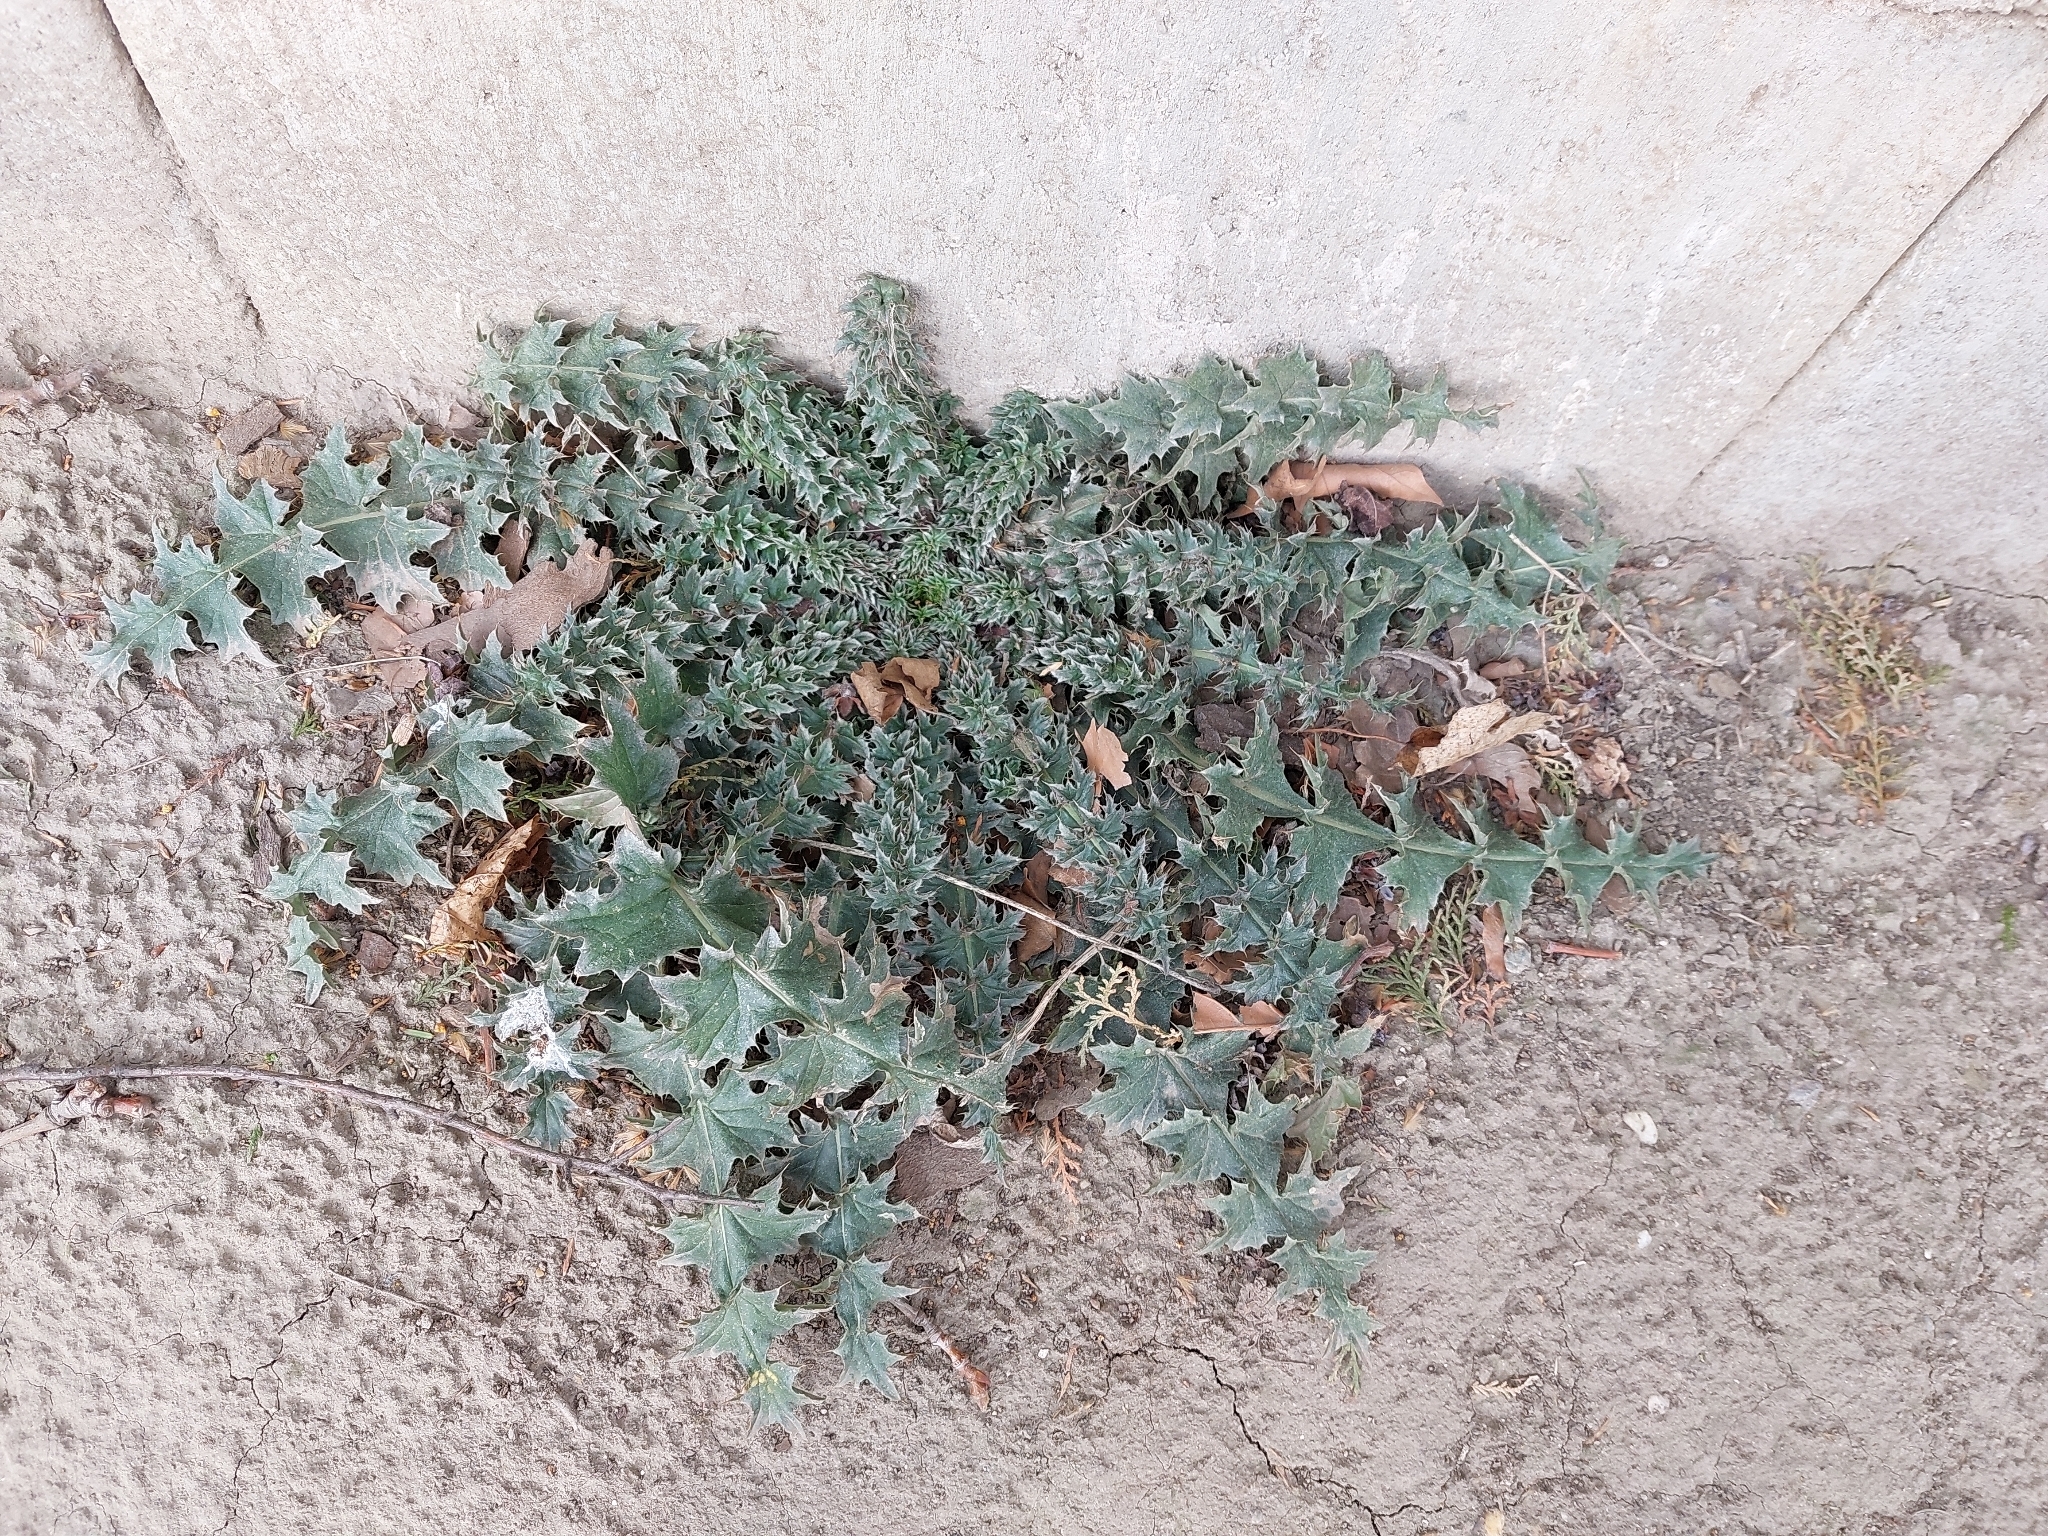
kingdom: Plantae
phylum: Tracheophyta
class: Magnoliopsida
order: Asterales
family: Asteraceae
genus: Carduus
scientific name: Carduus acanthoides
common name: Plumeless thistle
